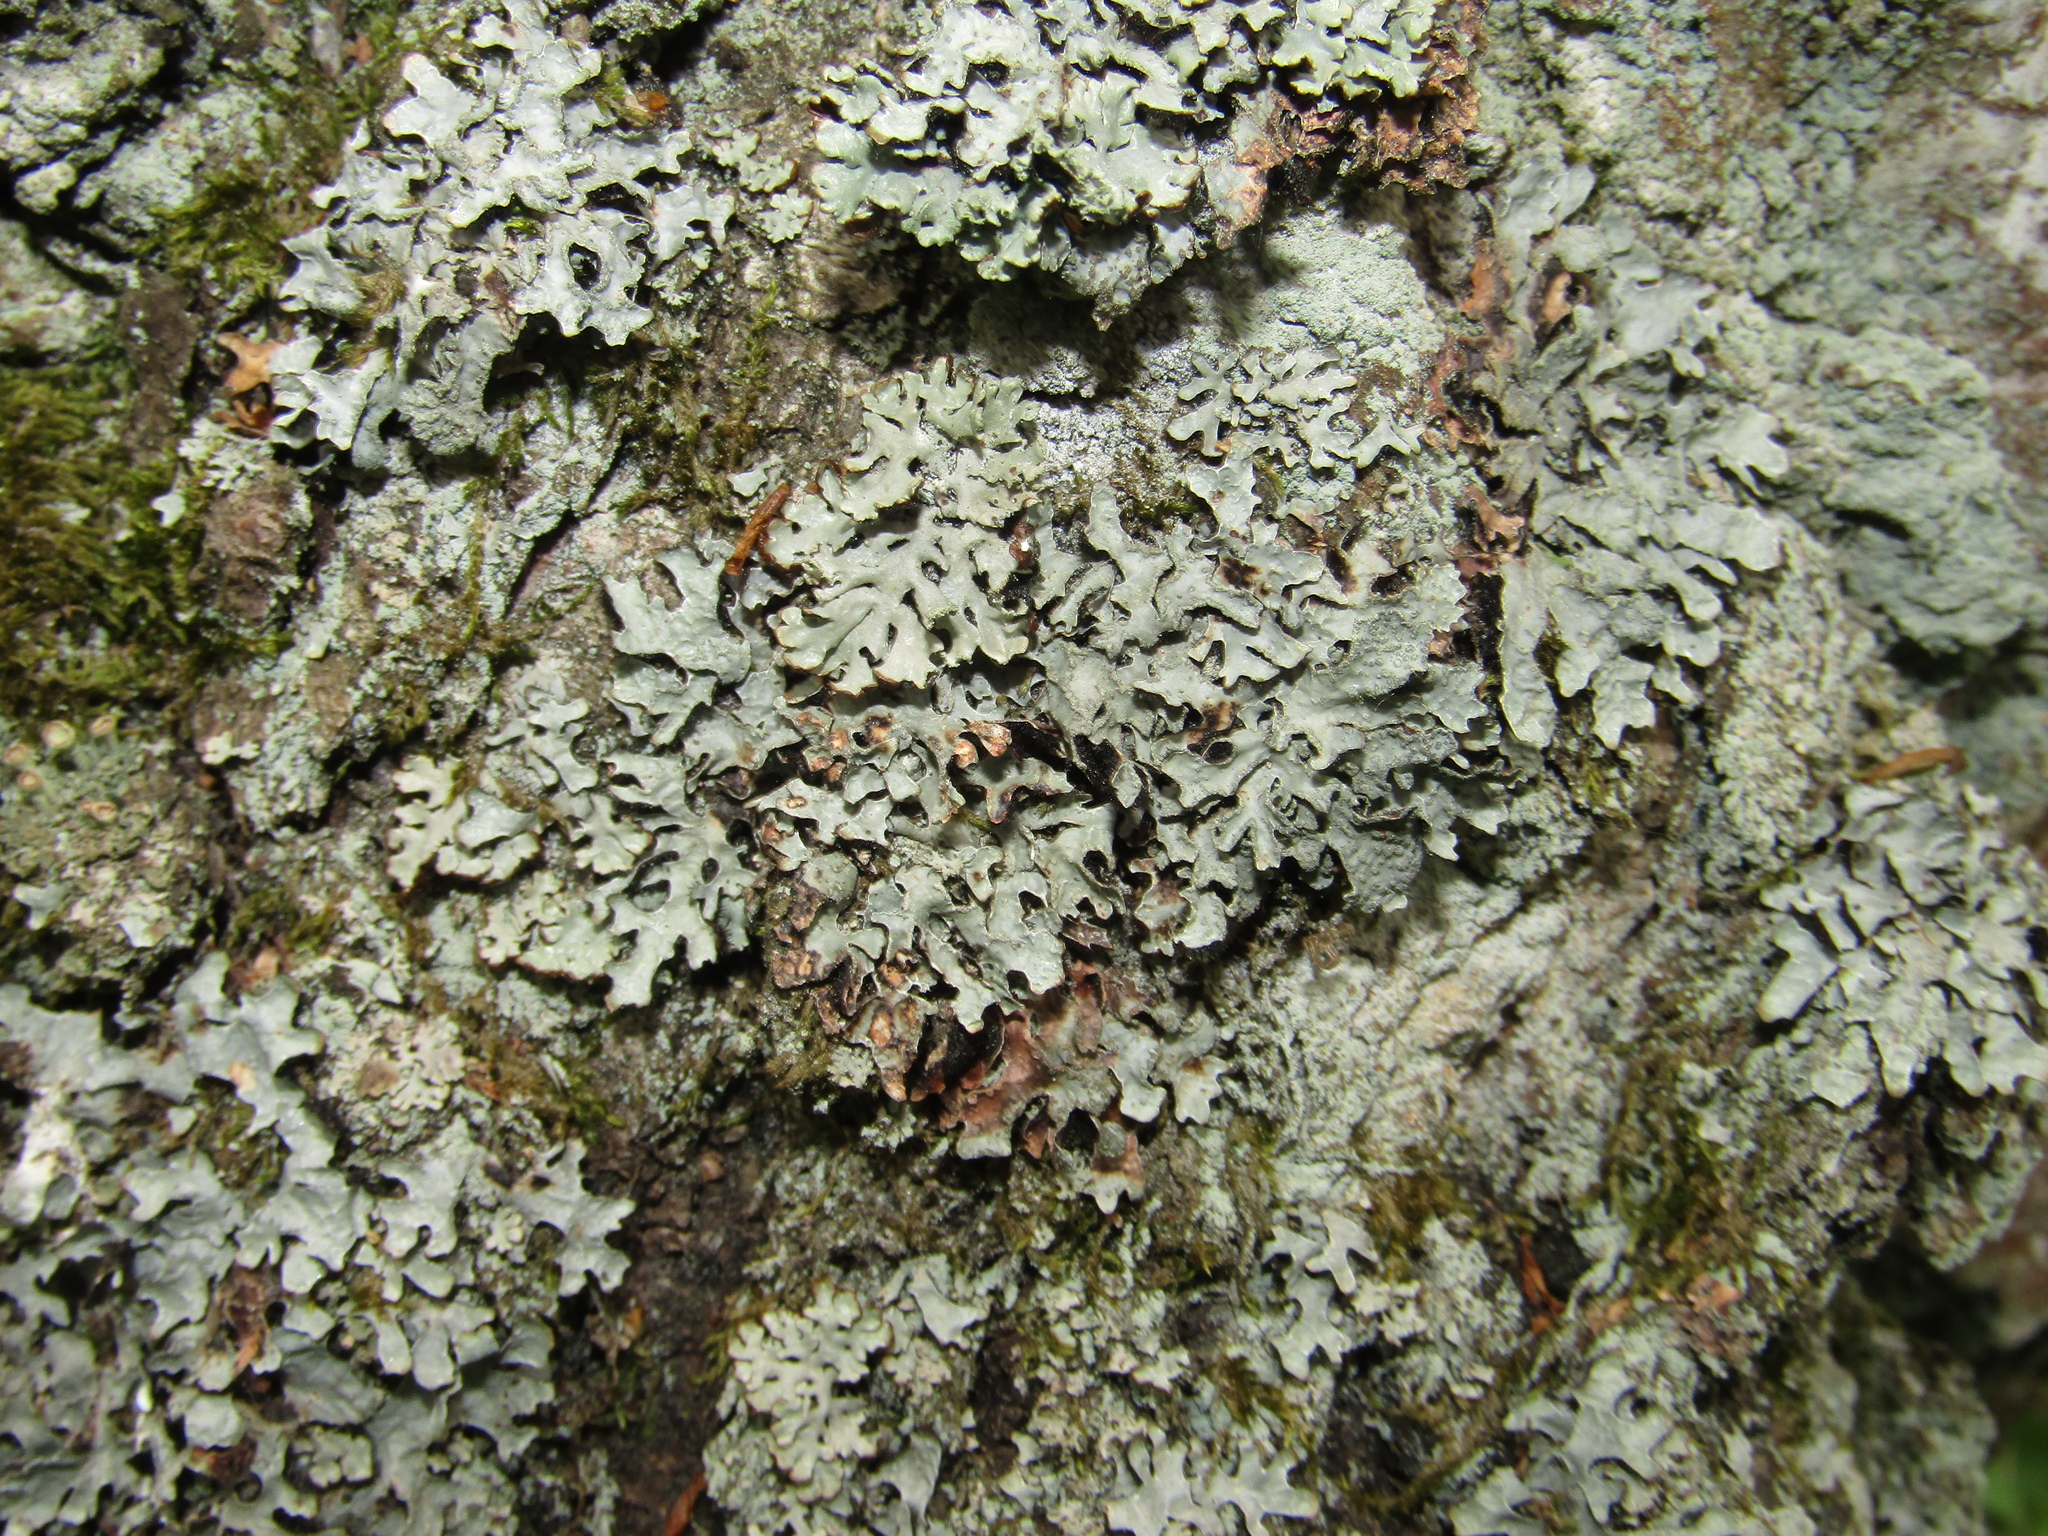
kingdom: Fungi
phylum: Ascomycota
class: Lecanoromycetes
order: Lecanorales
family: Parmeliaceae
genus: Parmelia
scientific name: Parmelia sulcata
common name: Netted shield lichen
